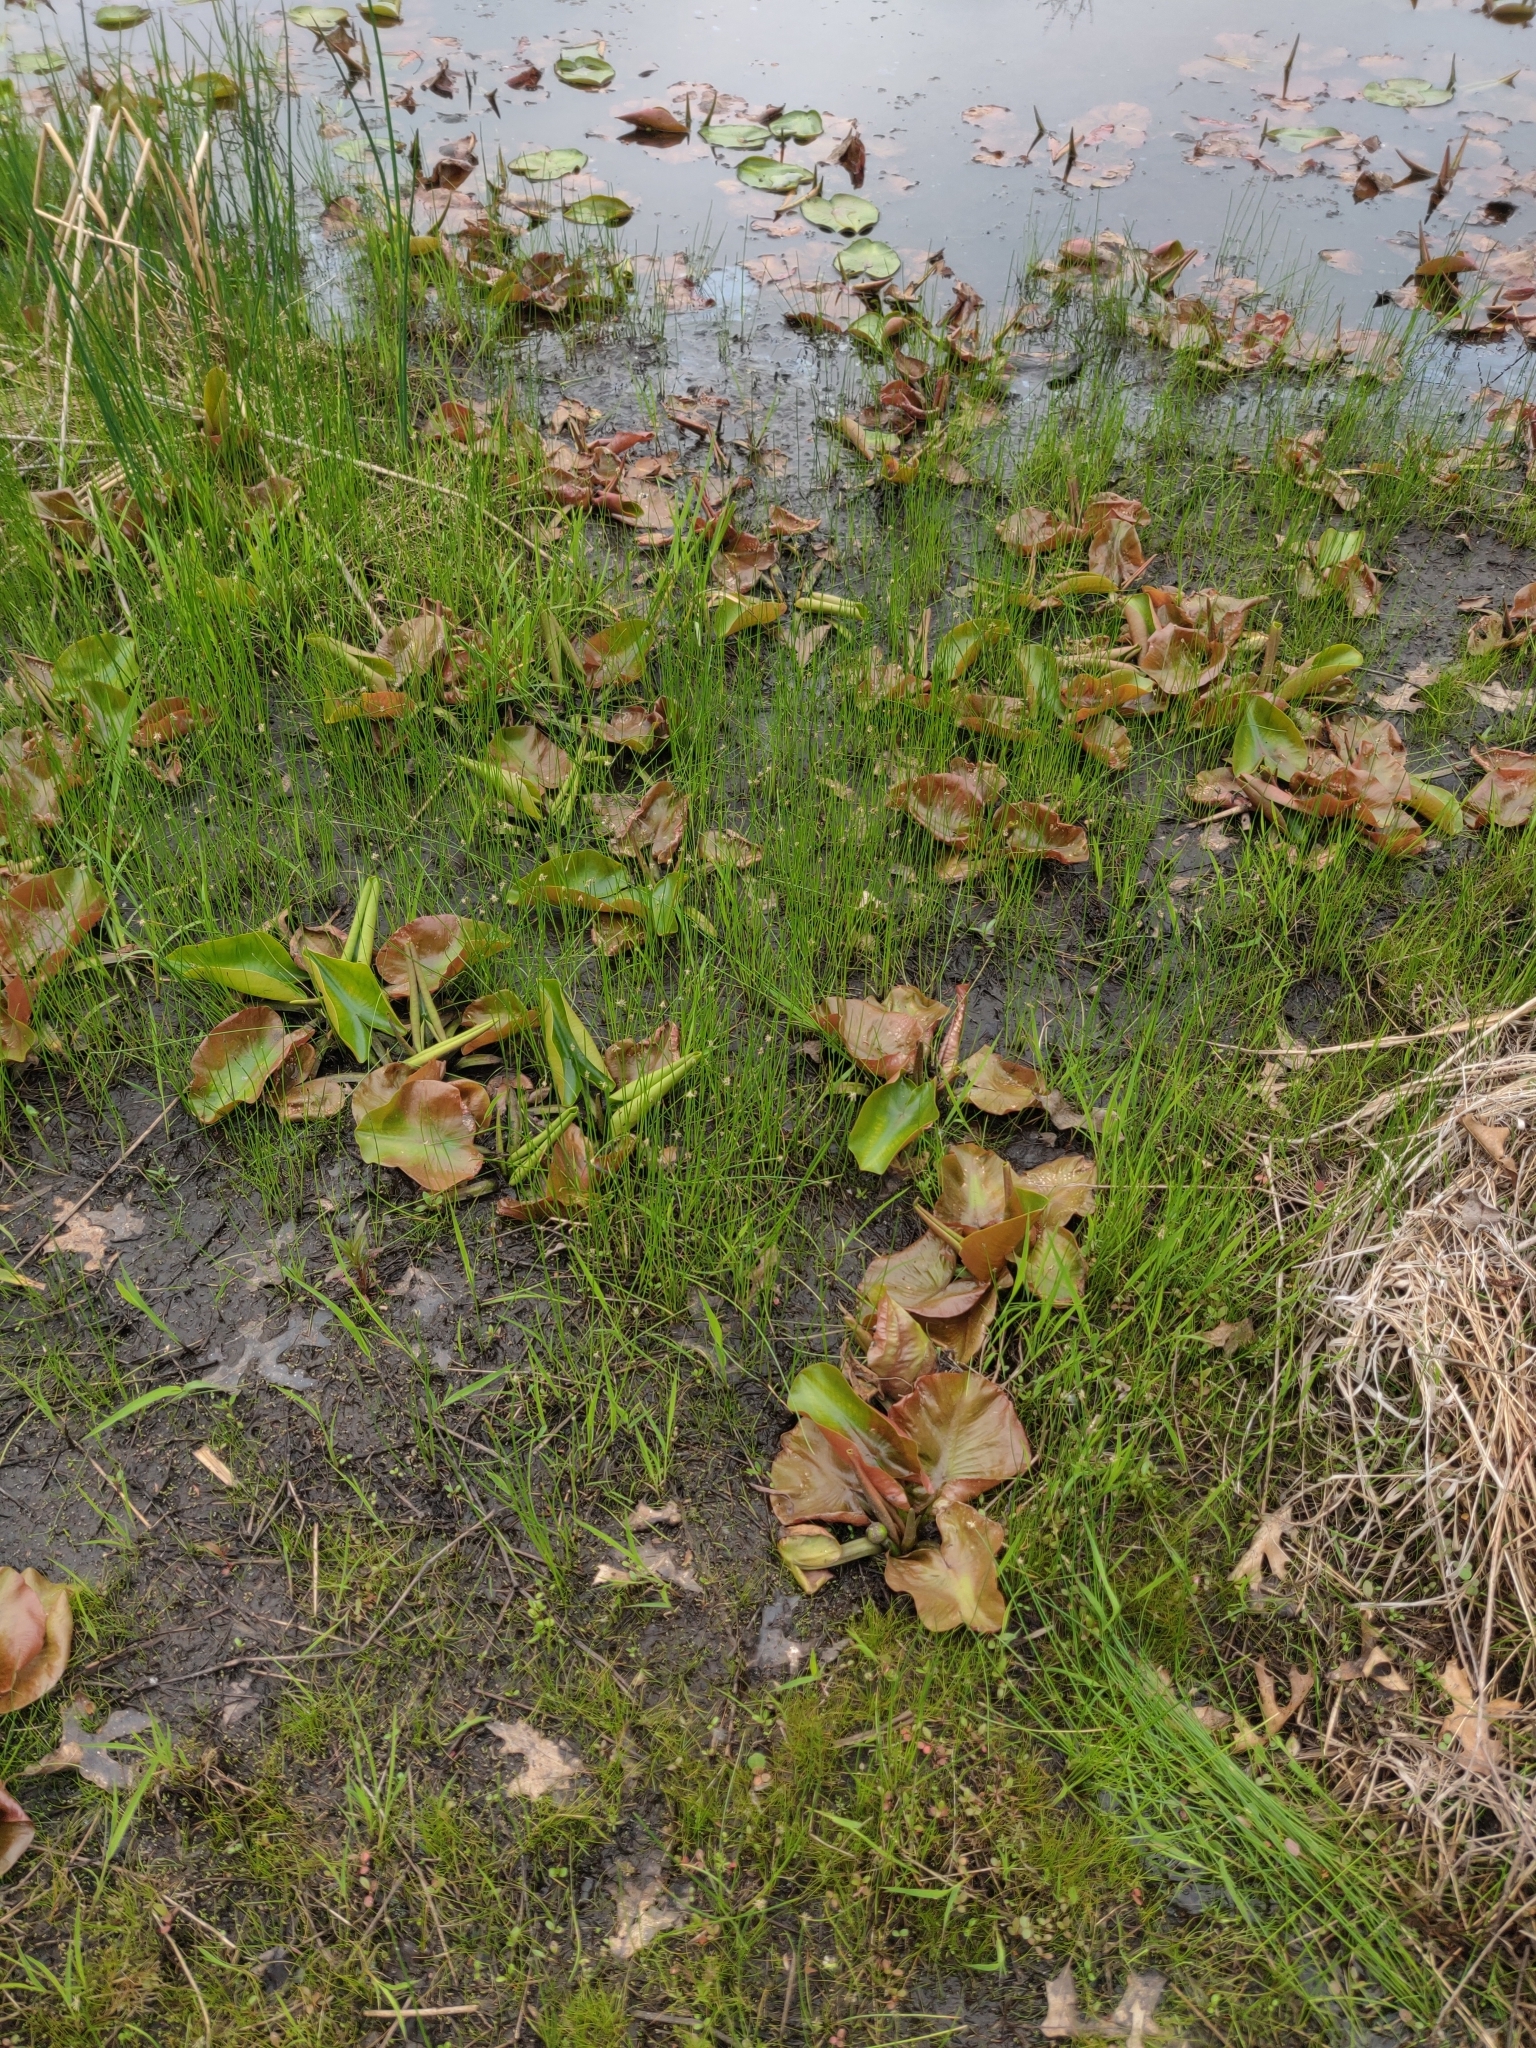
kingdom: Plantae
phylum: Tracheophyta
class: Magnoliopsida
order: Ranunculales
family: Ranunculaceae
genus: Caltha
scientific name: Caltha palustris
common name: Marsh marigold
